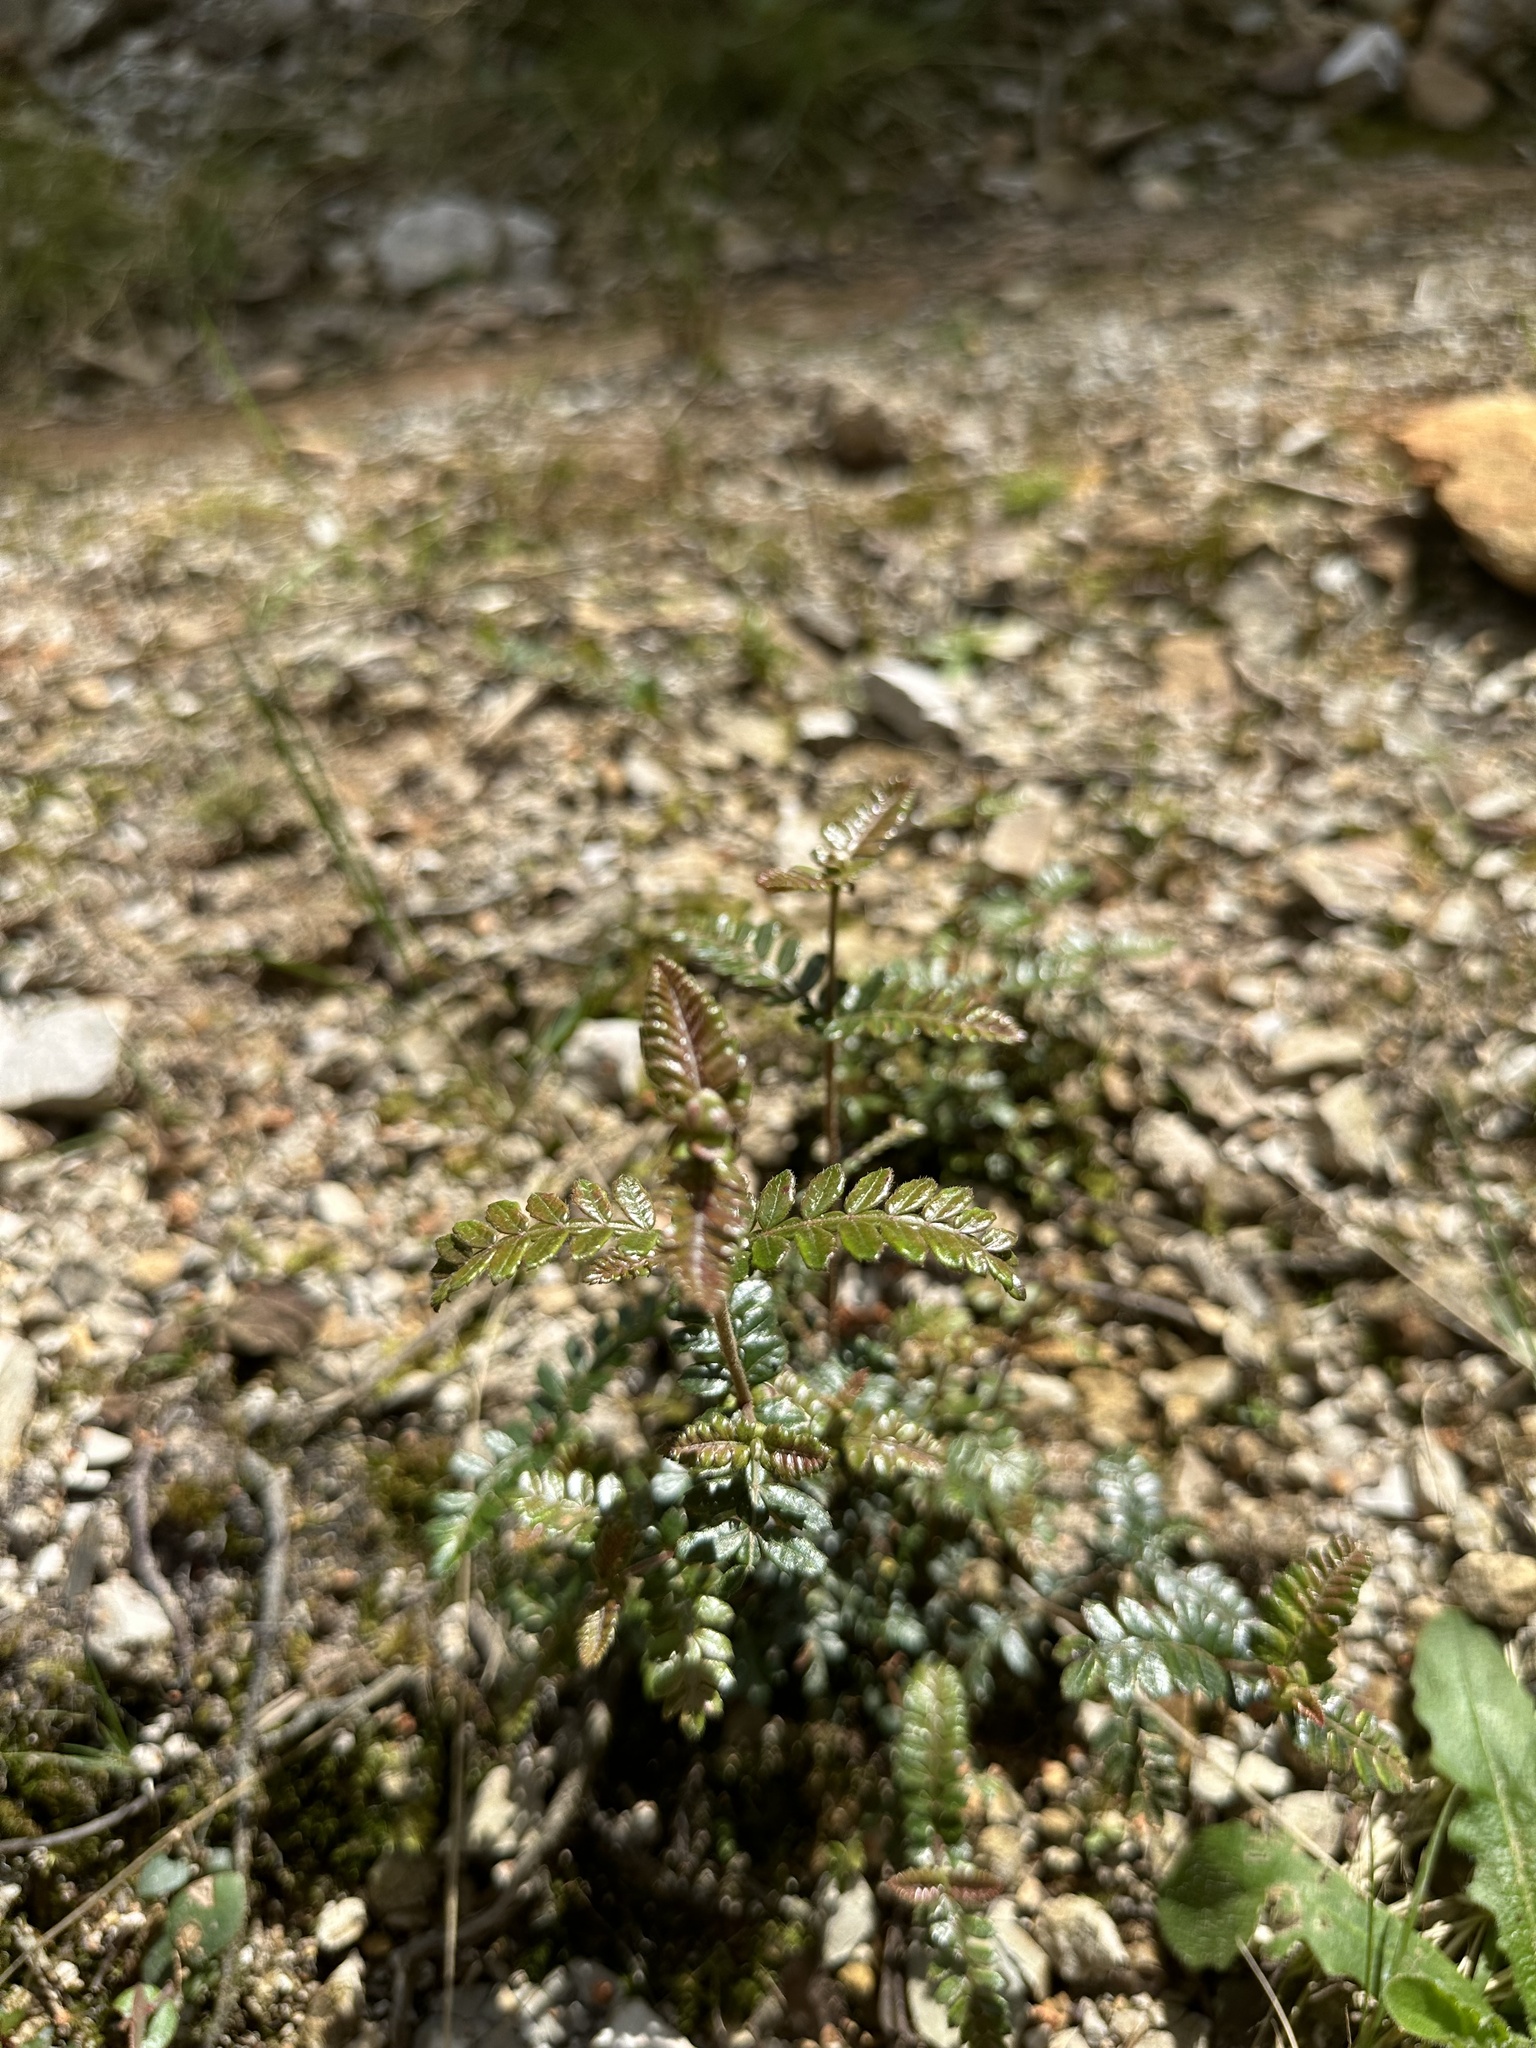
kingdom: Plantae
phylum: Tracheophyta
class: Magnoliopsida
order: Oxalidales
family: Cunoniaceae
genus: Weinmannia
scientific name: Weinmannia tomentosa
